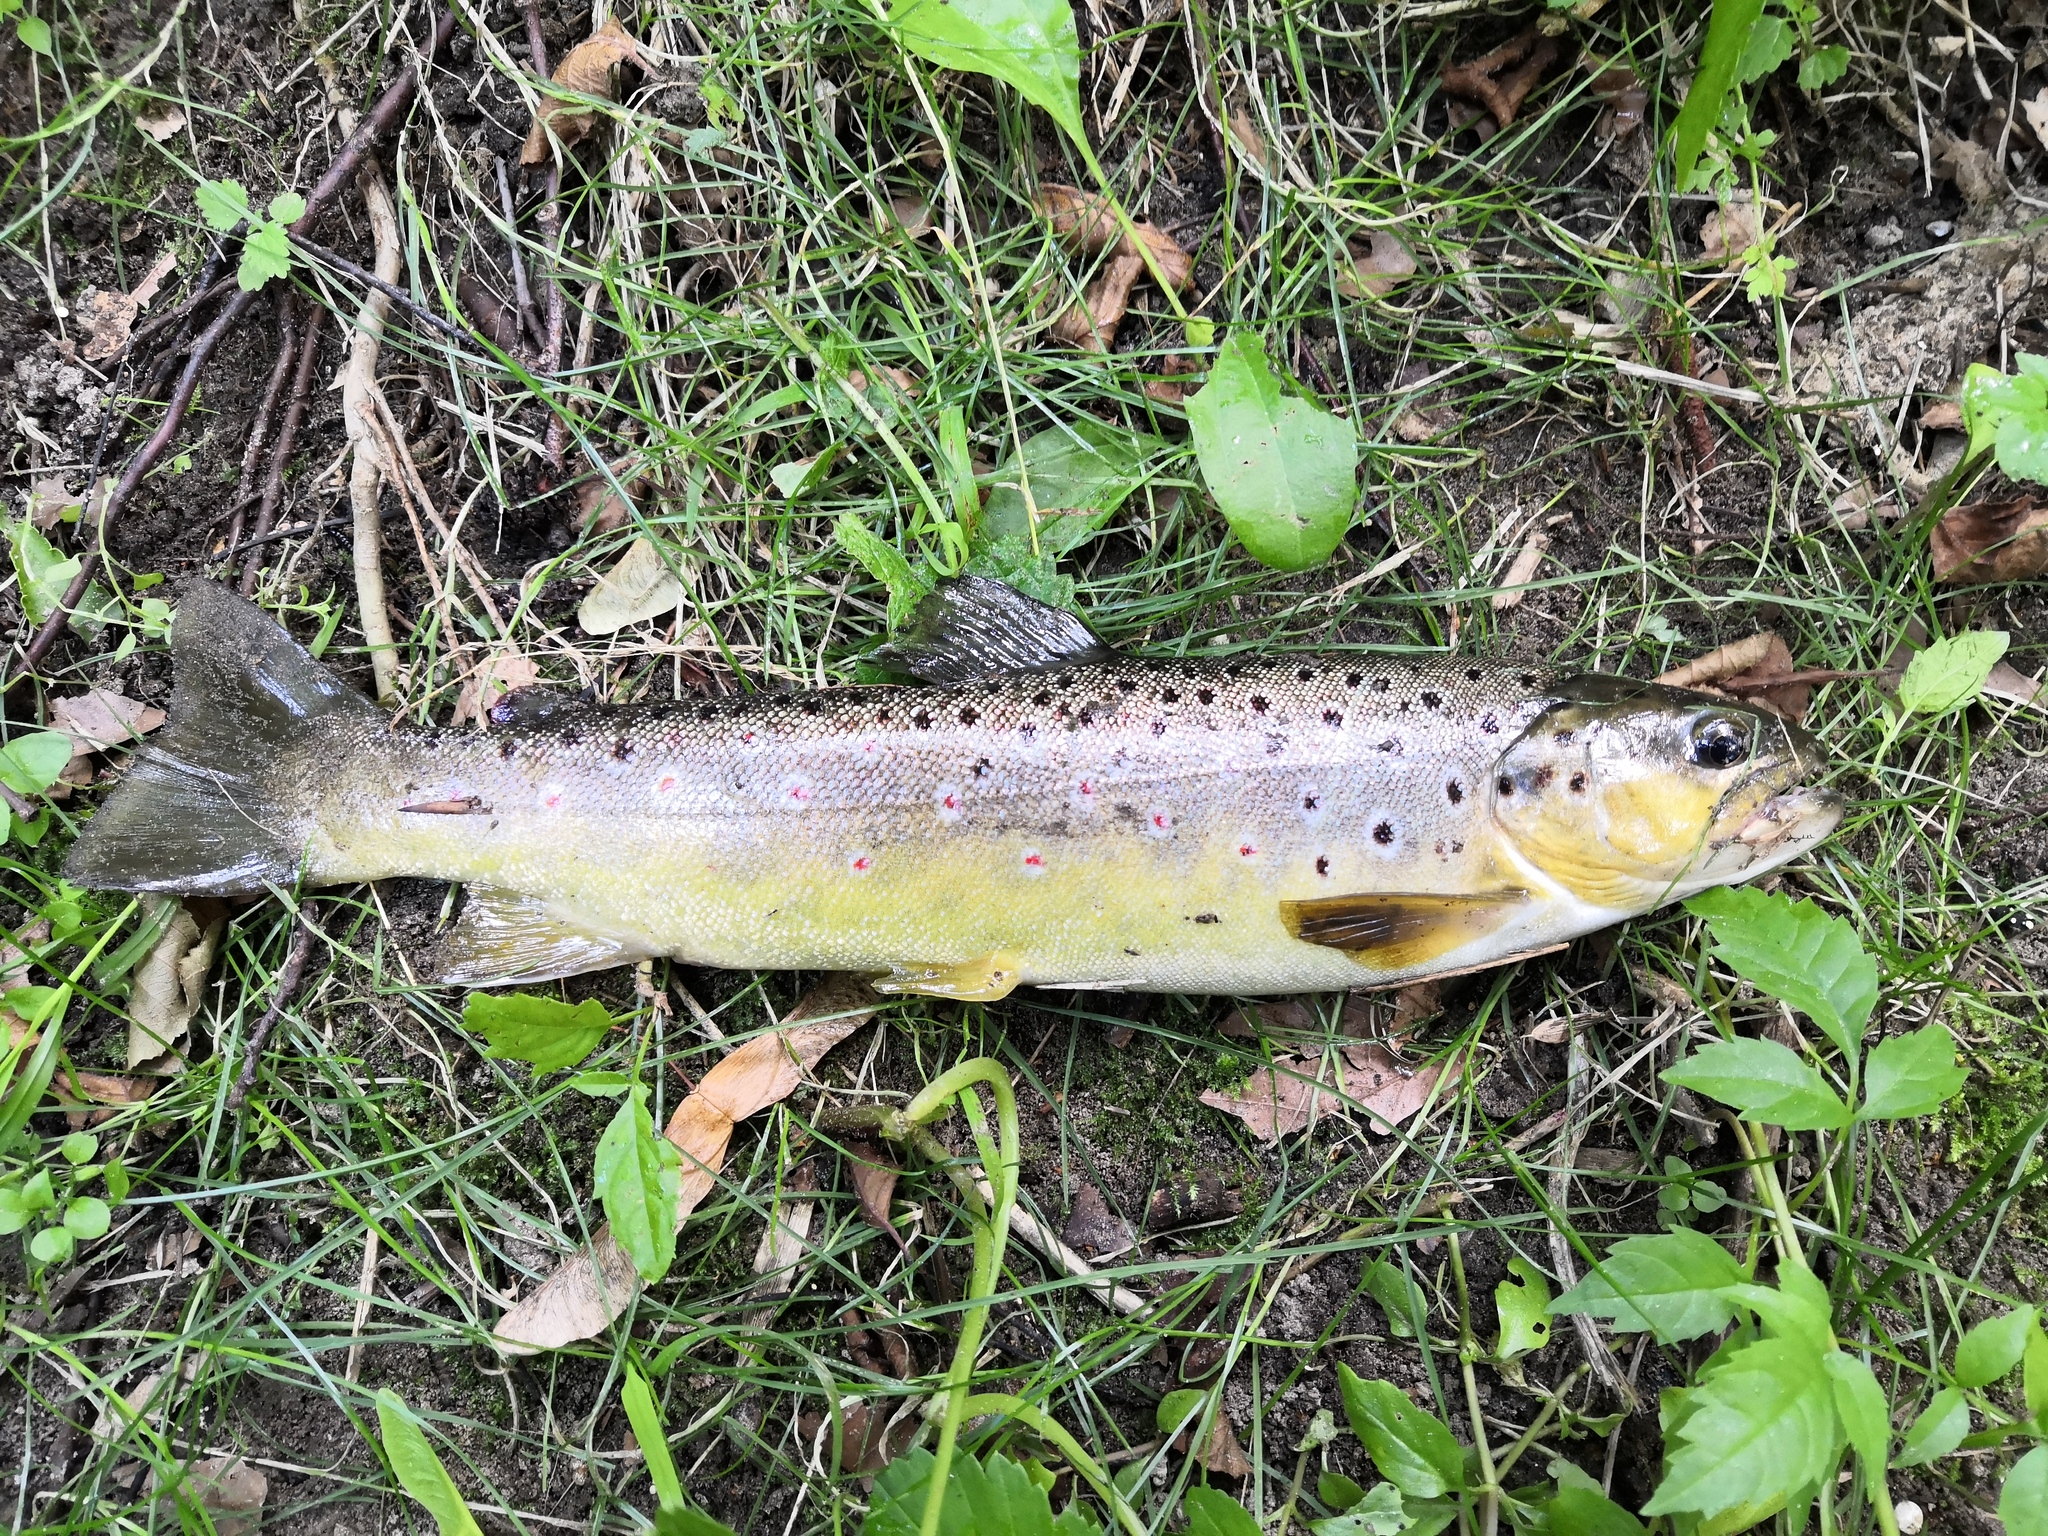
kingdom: Animalia
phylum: Chordata
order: Salmoniformes
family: Salmonidae
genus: Salmo
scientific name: Salmo trutta
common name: Brown trout
